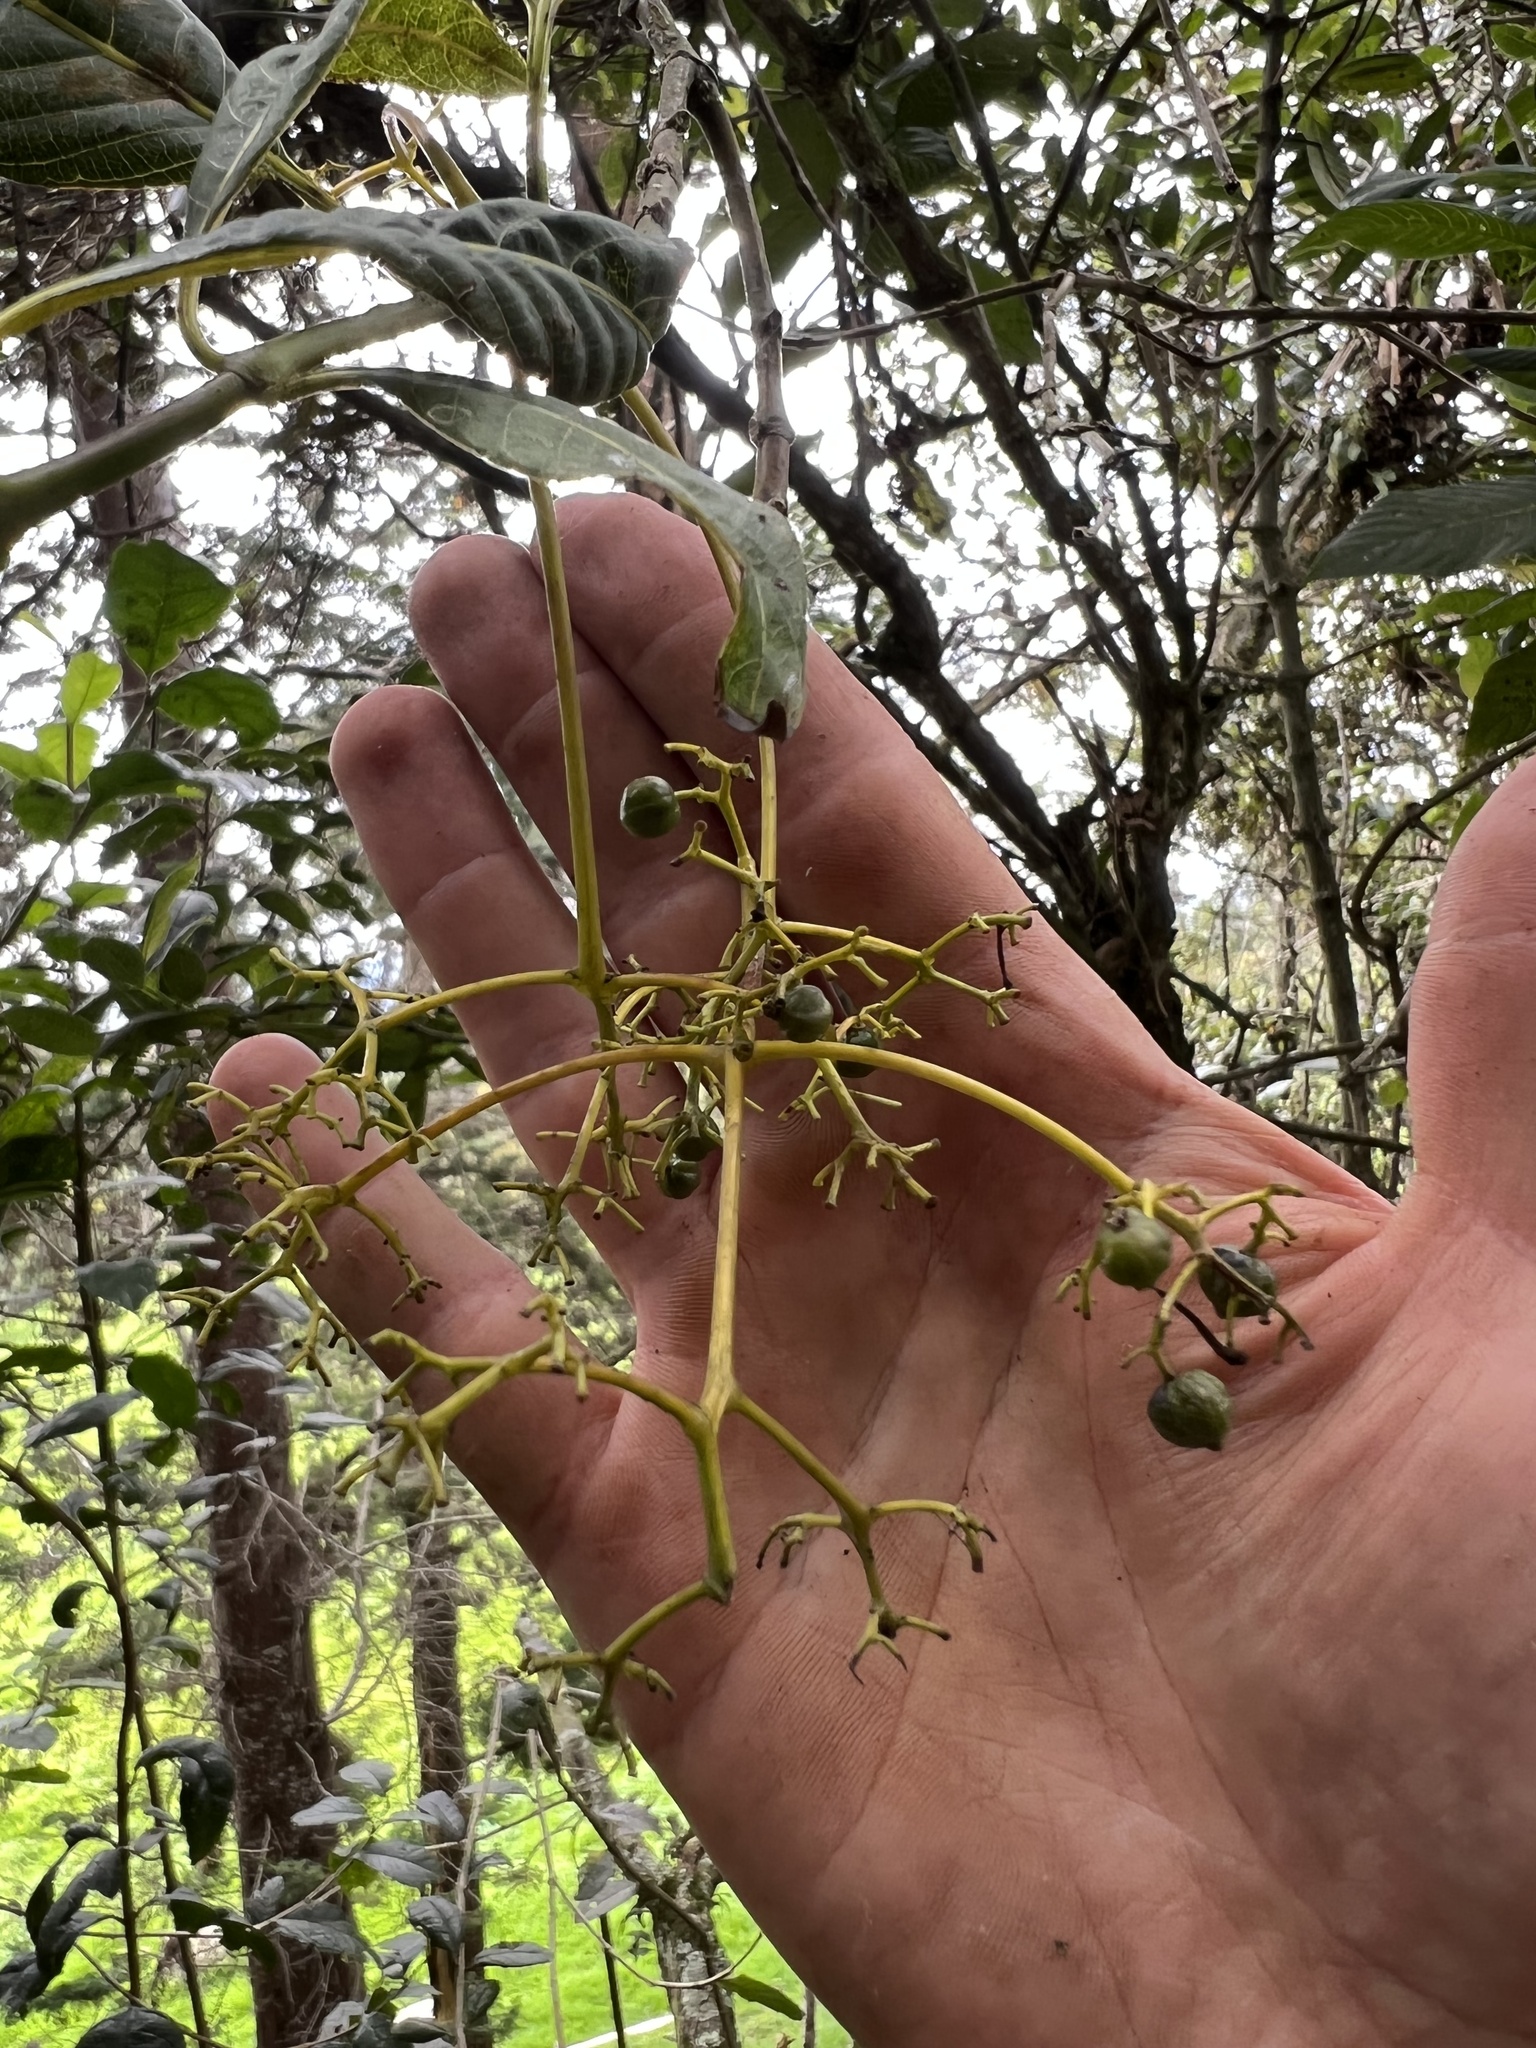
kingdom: Plantae
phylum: Tracheophyta
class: Magnoliopsida
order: Gentianales
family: Rubiaceae
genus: Palicourea
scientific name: Palicourea lineariflora
